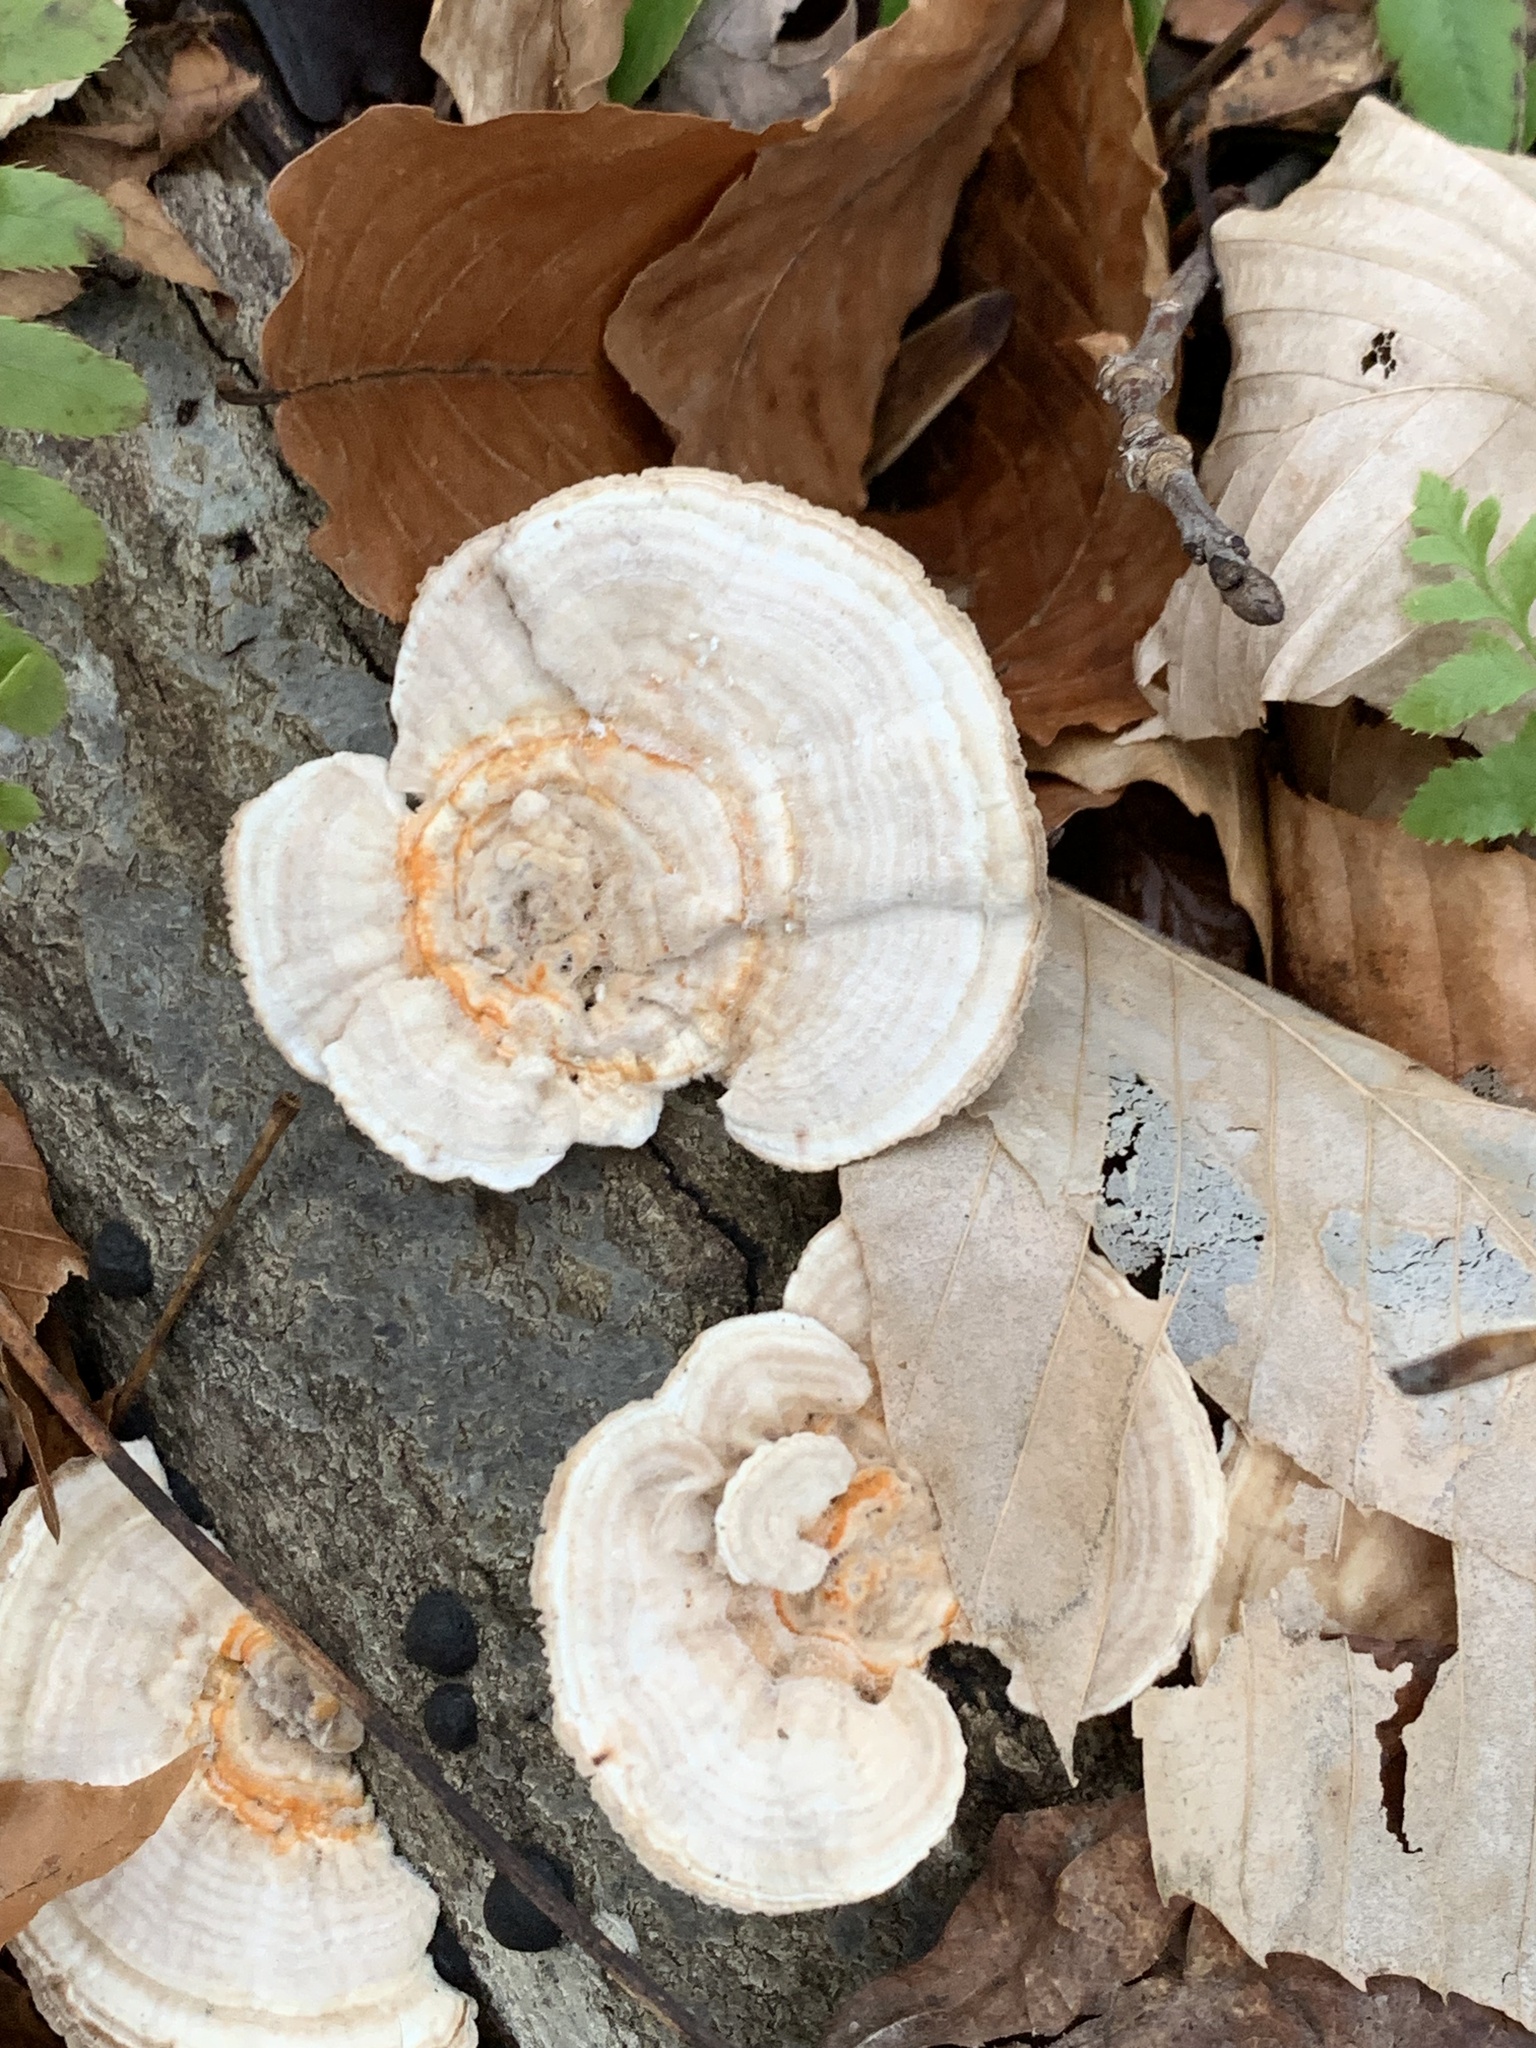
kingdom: Fungi
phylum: Basidiomycota
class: Agaricomycetes
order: Polyporales
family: Polyporaceae
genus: Lenzites
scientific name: Lenzites betulinus
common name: Birch mazegill
